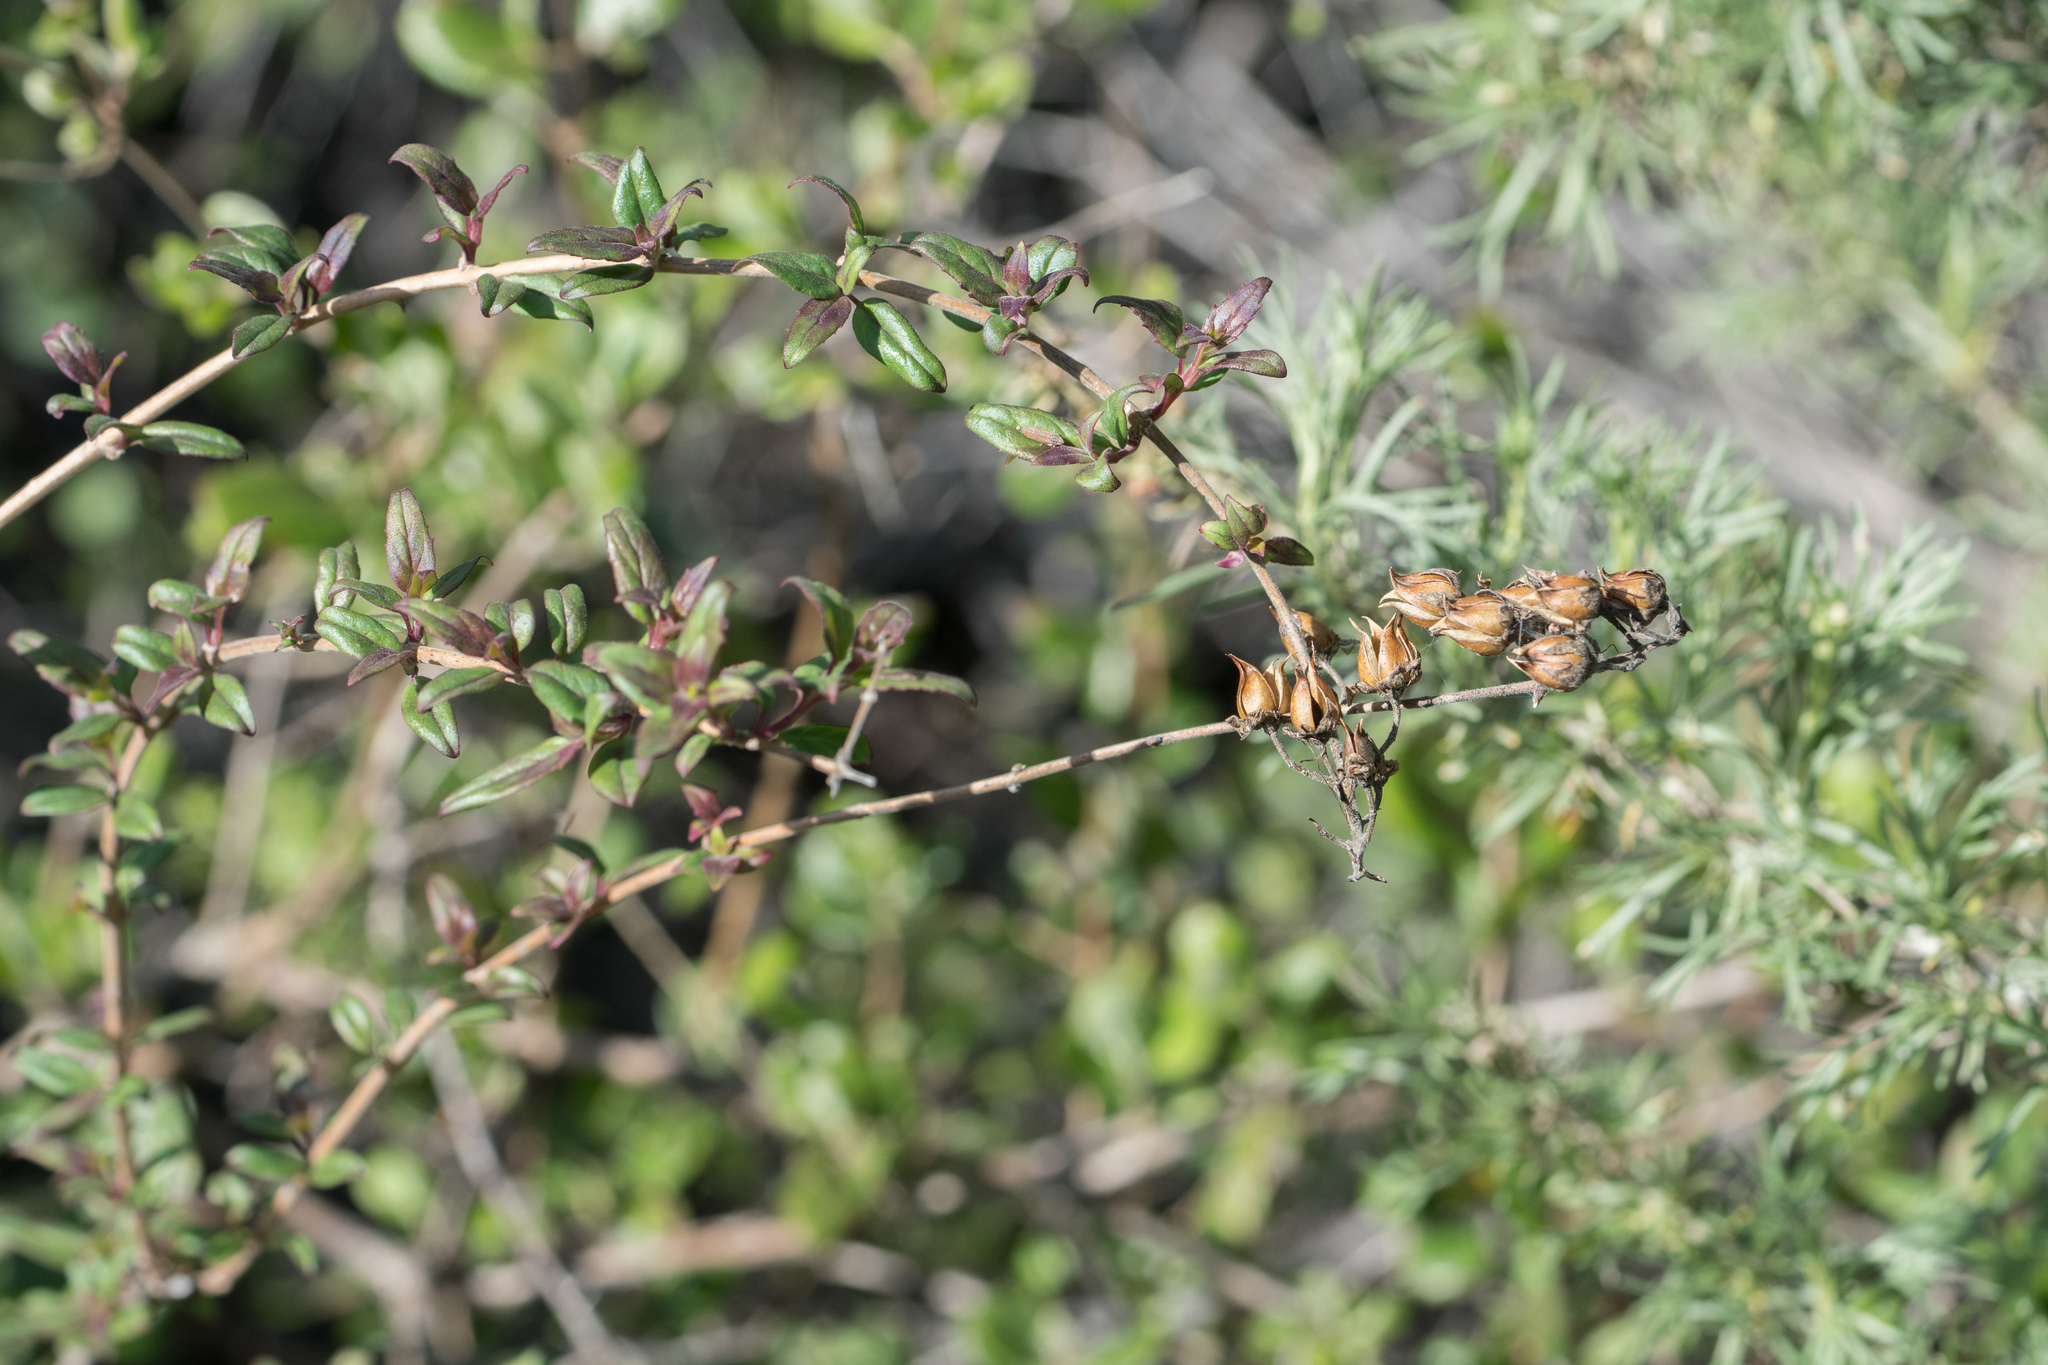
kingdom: Plantae
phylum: Tracheophyta
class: Magnoliopsida
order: Lamiales
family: Plantaginaceae
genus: Keckiella
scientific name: Keckiella cordifolia
